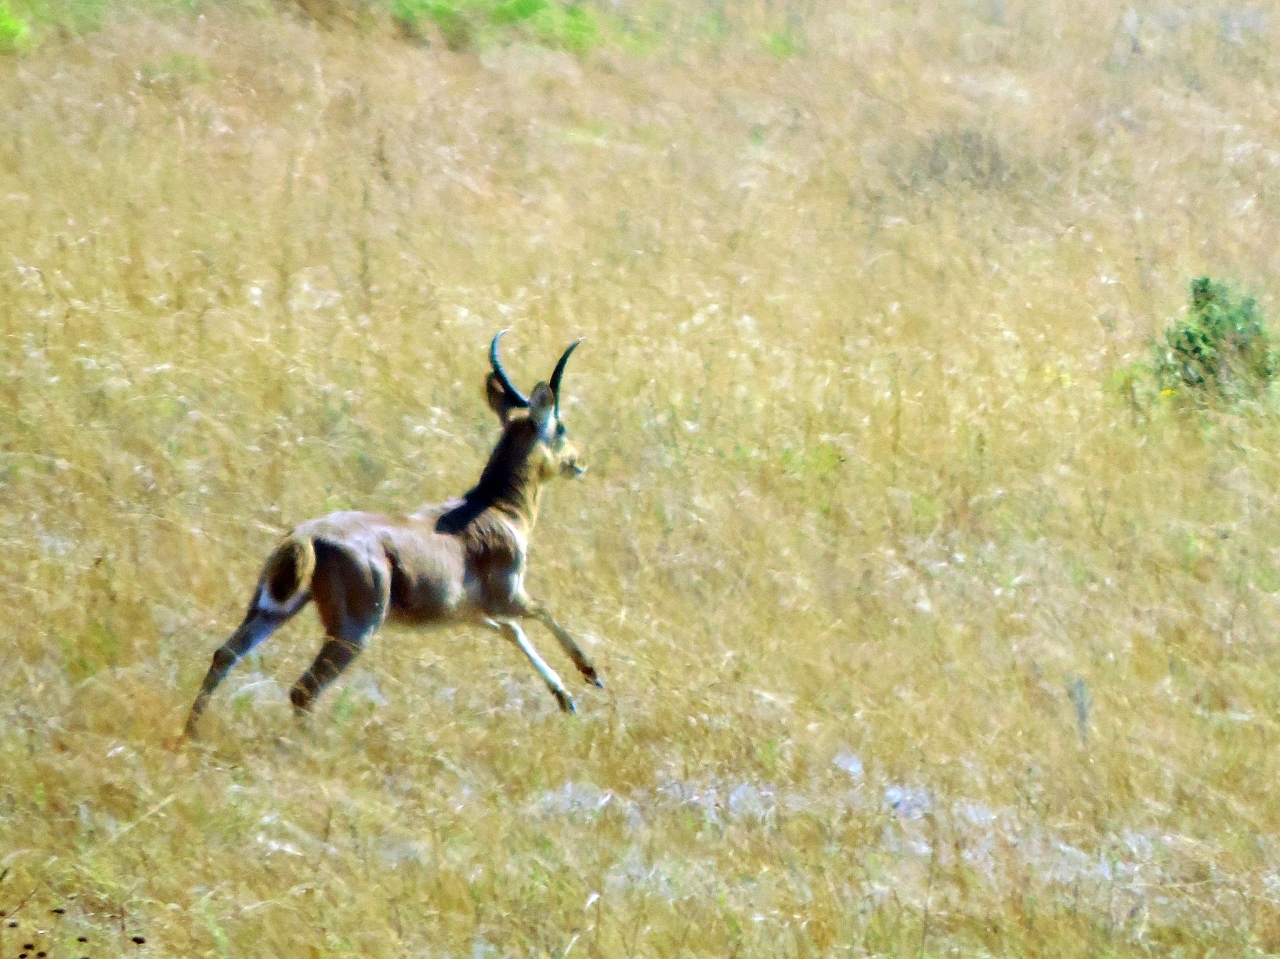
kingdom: Animalia
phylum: Chordata
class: Mammalia
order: Artiodactyla
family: Bovidae
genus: Redunca
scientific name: Redunca arundinum
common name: Southern reedbuck
